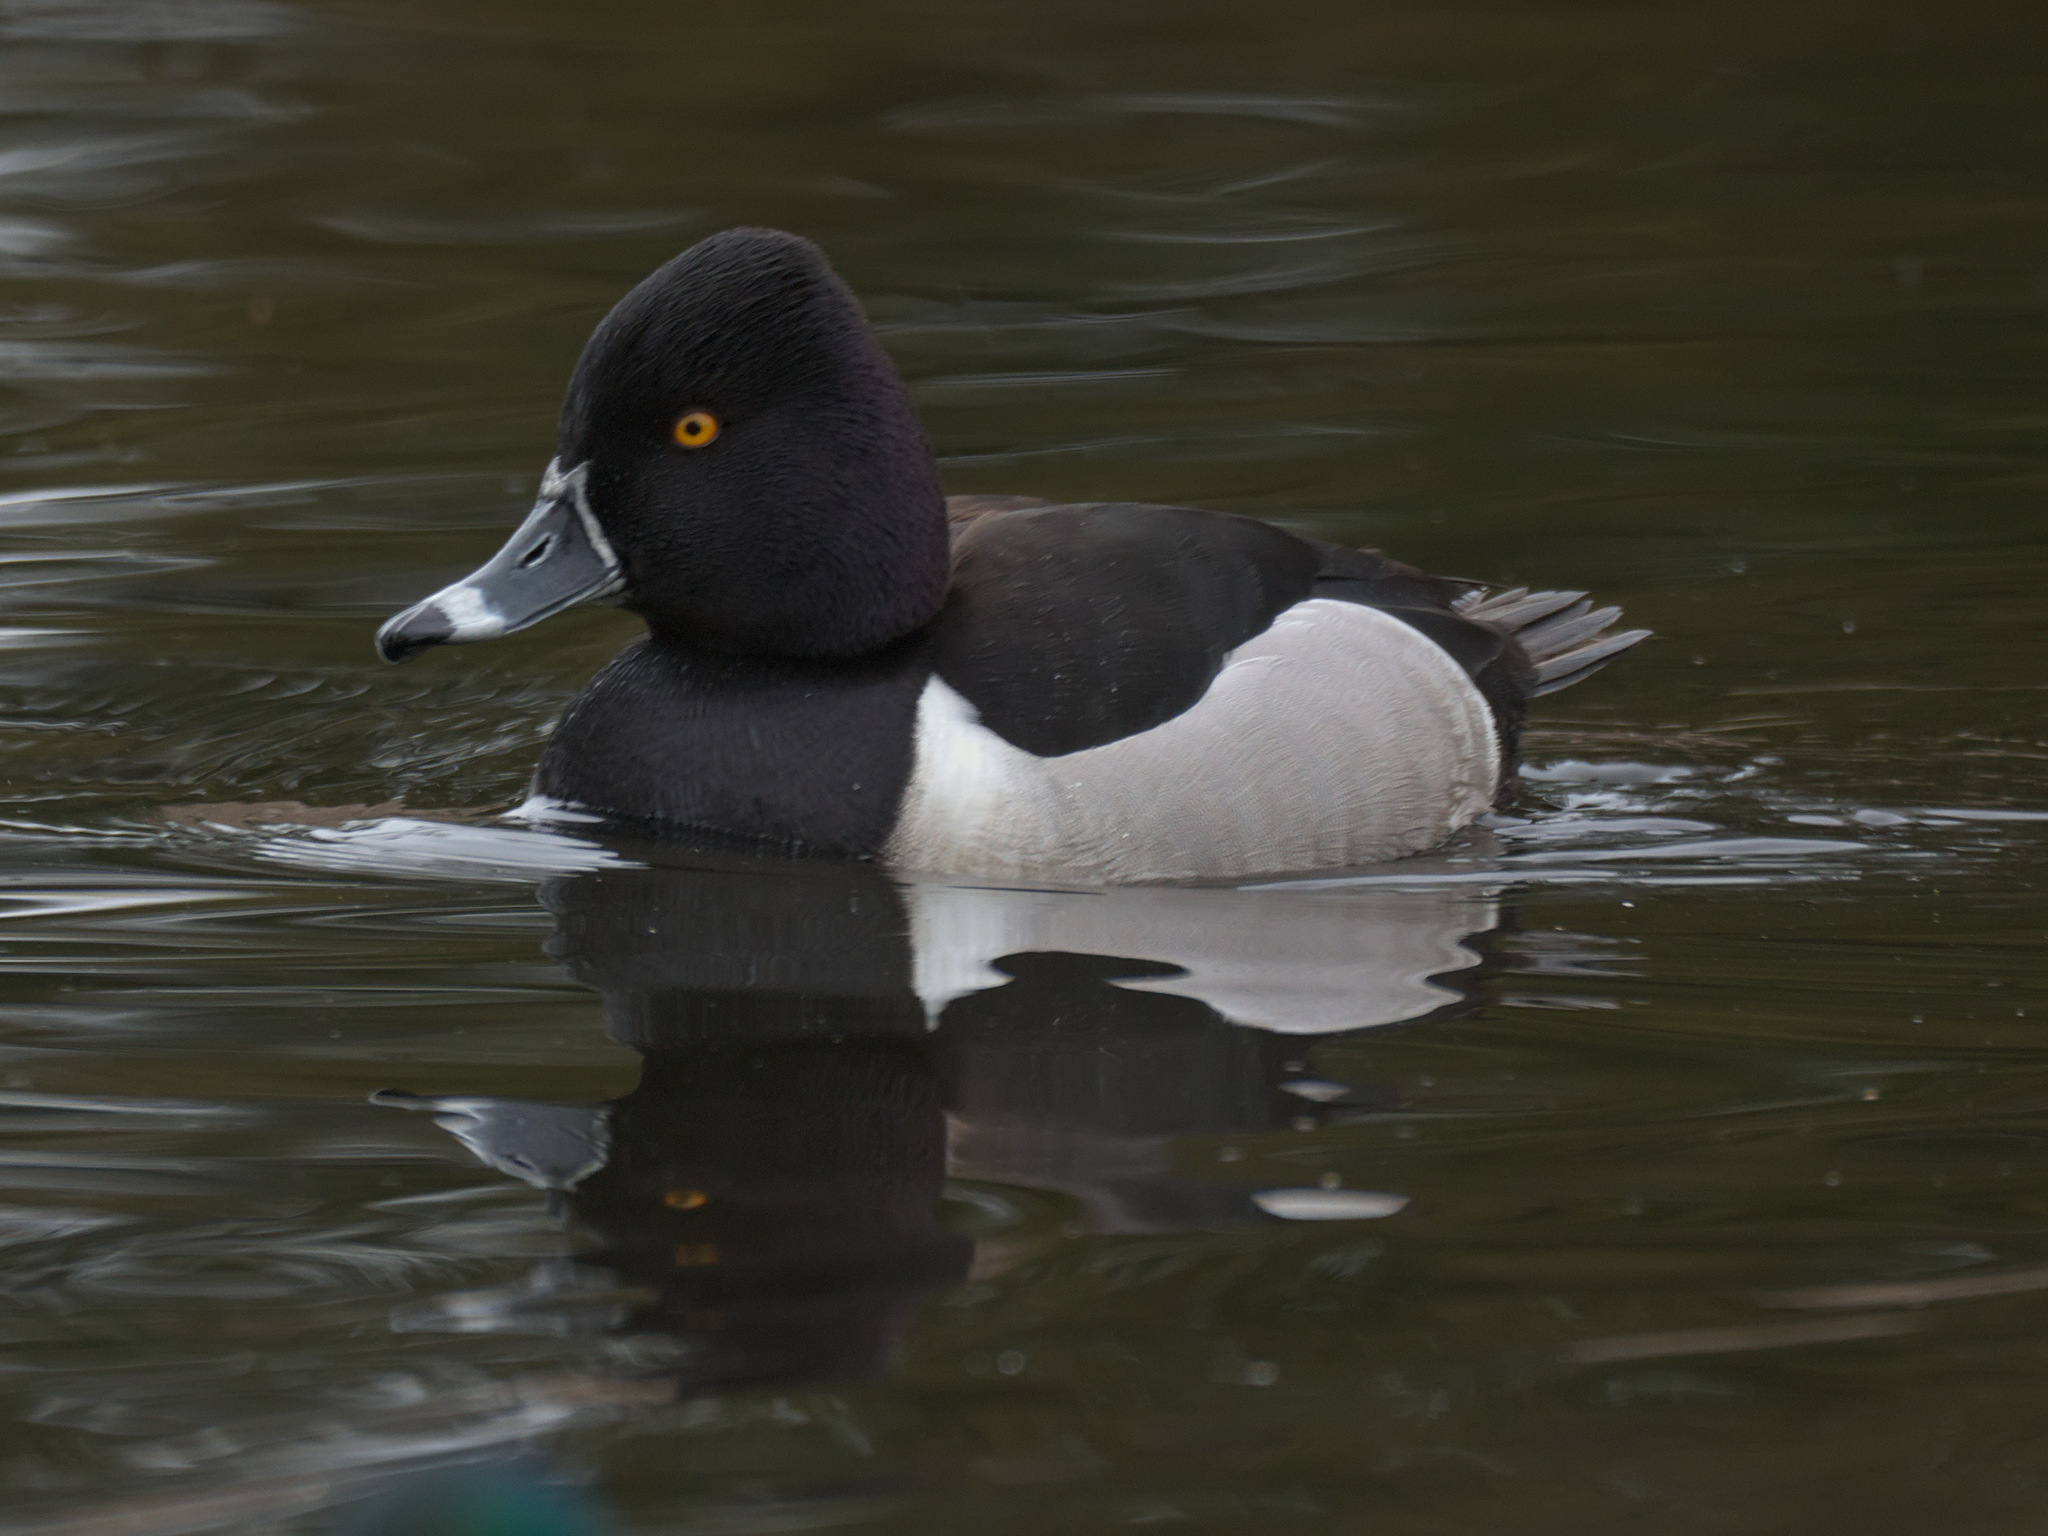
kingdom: Animalia
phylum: Chordata
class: Aves
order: Anseriformes
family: Anatidae
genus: Aythya
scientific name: Aythya collaris
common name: Ring-necked duck
